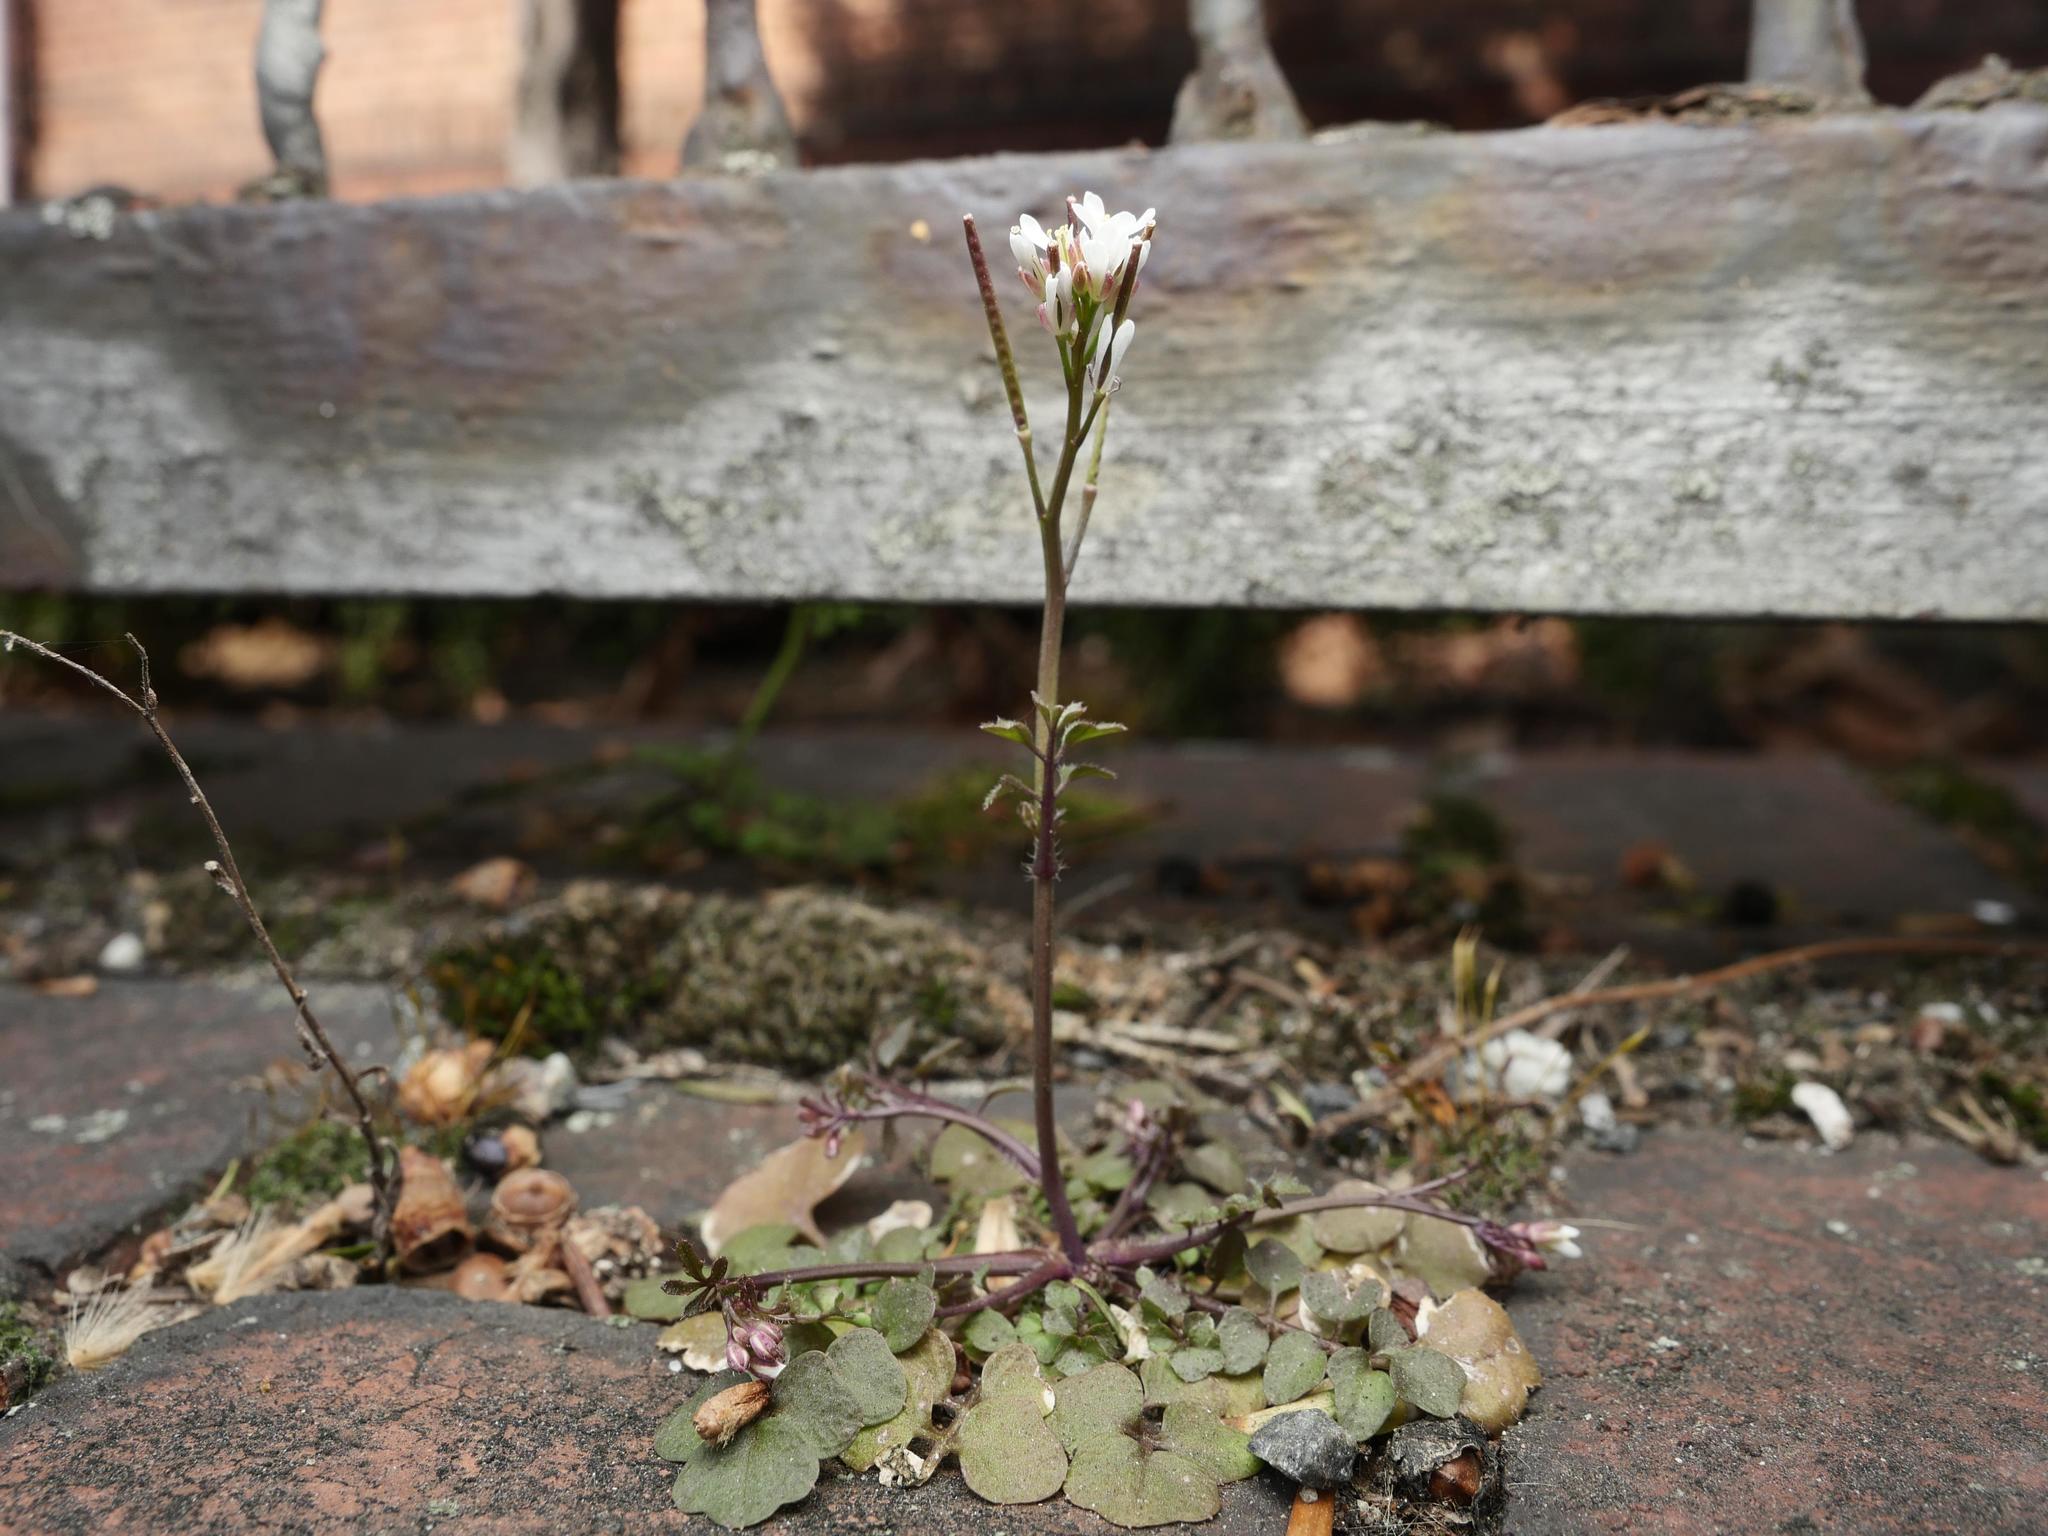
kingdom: Plantae
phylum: Tracheophyta
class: Magnoliopsida
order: Brassicales
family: Brassicaceae
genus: Cardamine
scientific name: Cardamine hirsuta
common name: Hairy bittercress
